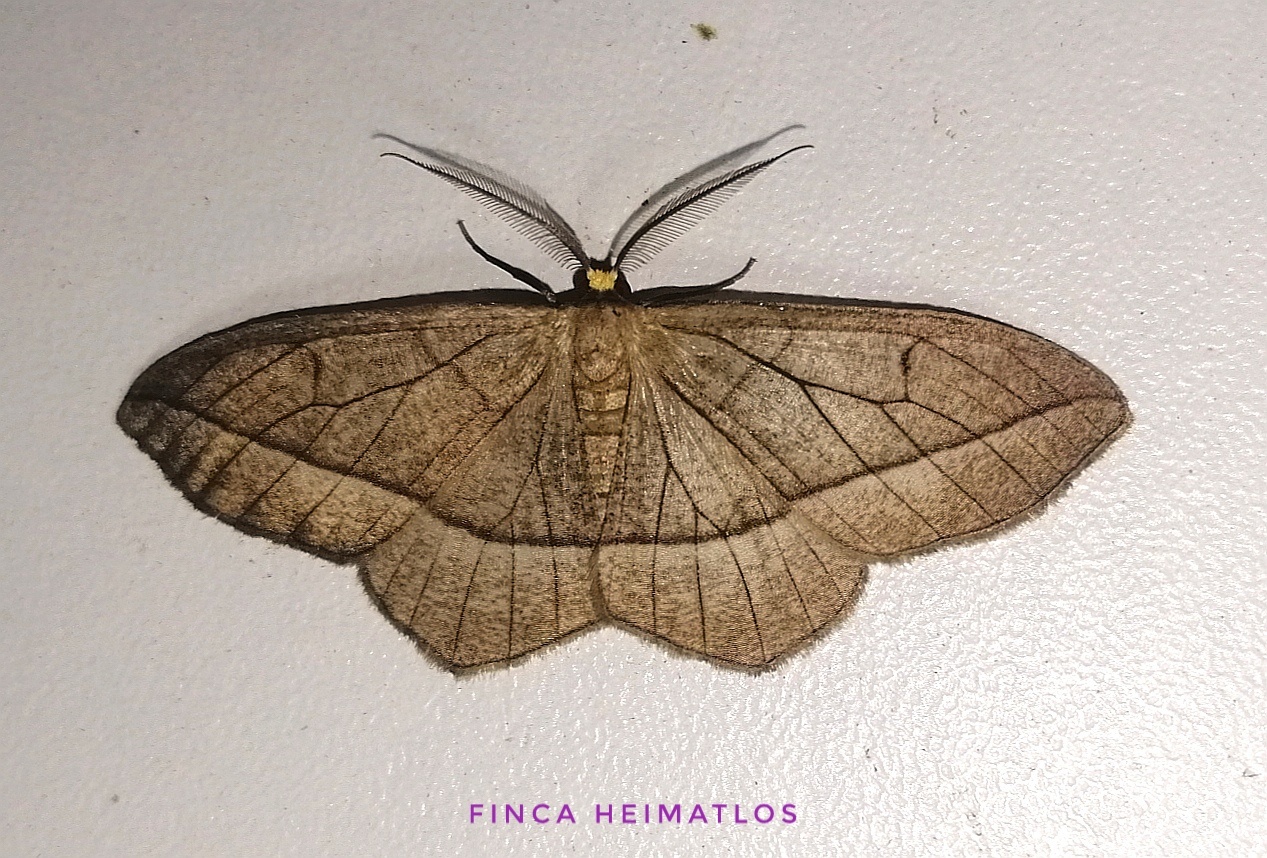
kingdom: Animalia
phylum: Arthropoda
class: Insecta
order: Lepidoptera
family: Geometridae
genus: Nephodia
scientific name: Nephodia secturata
